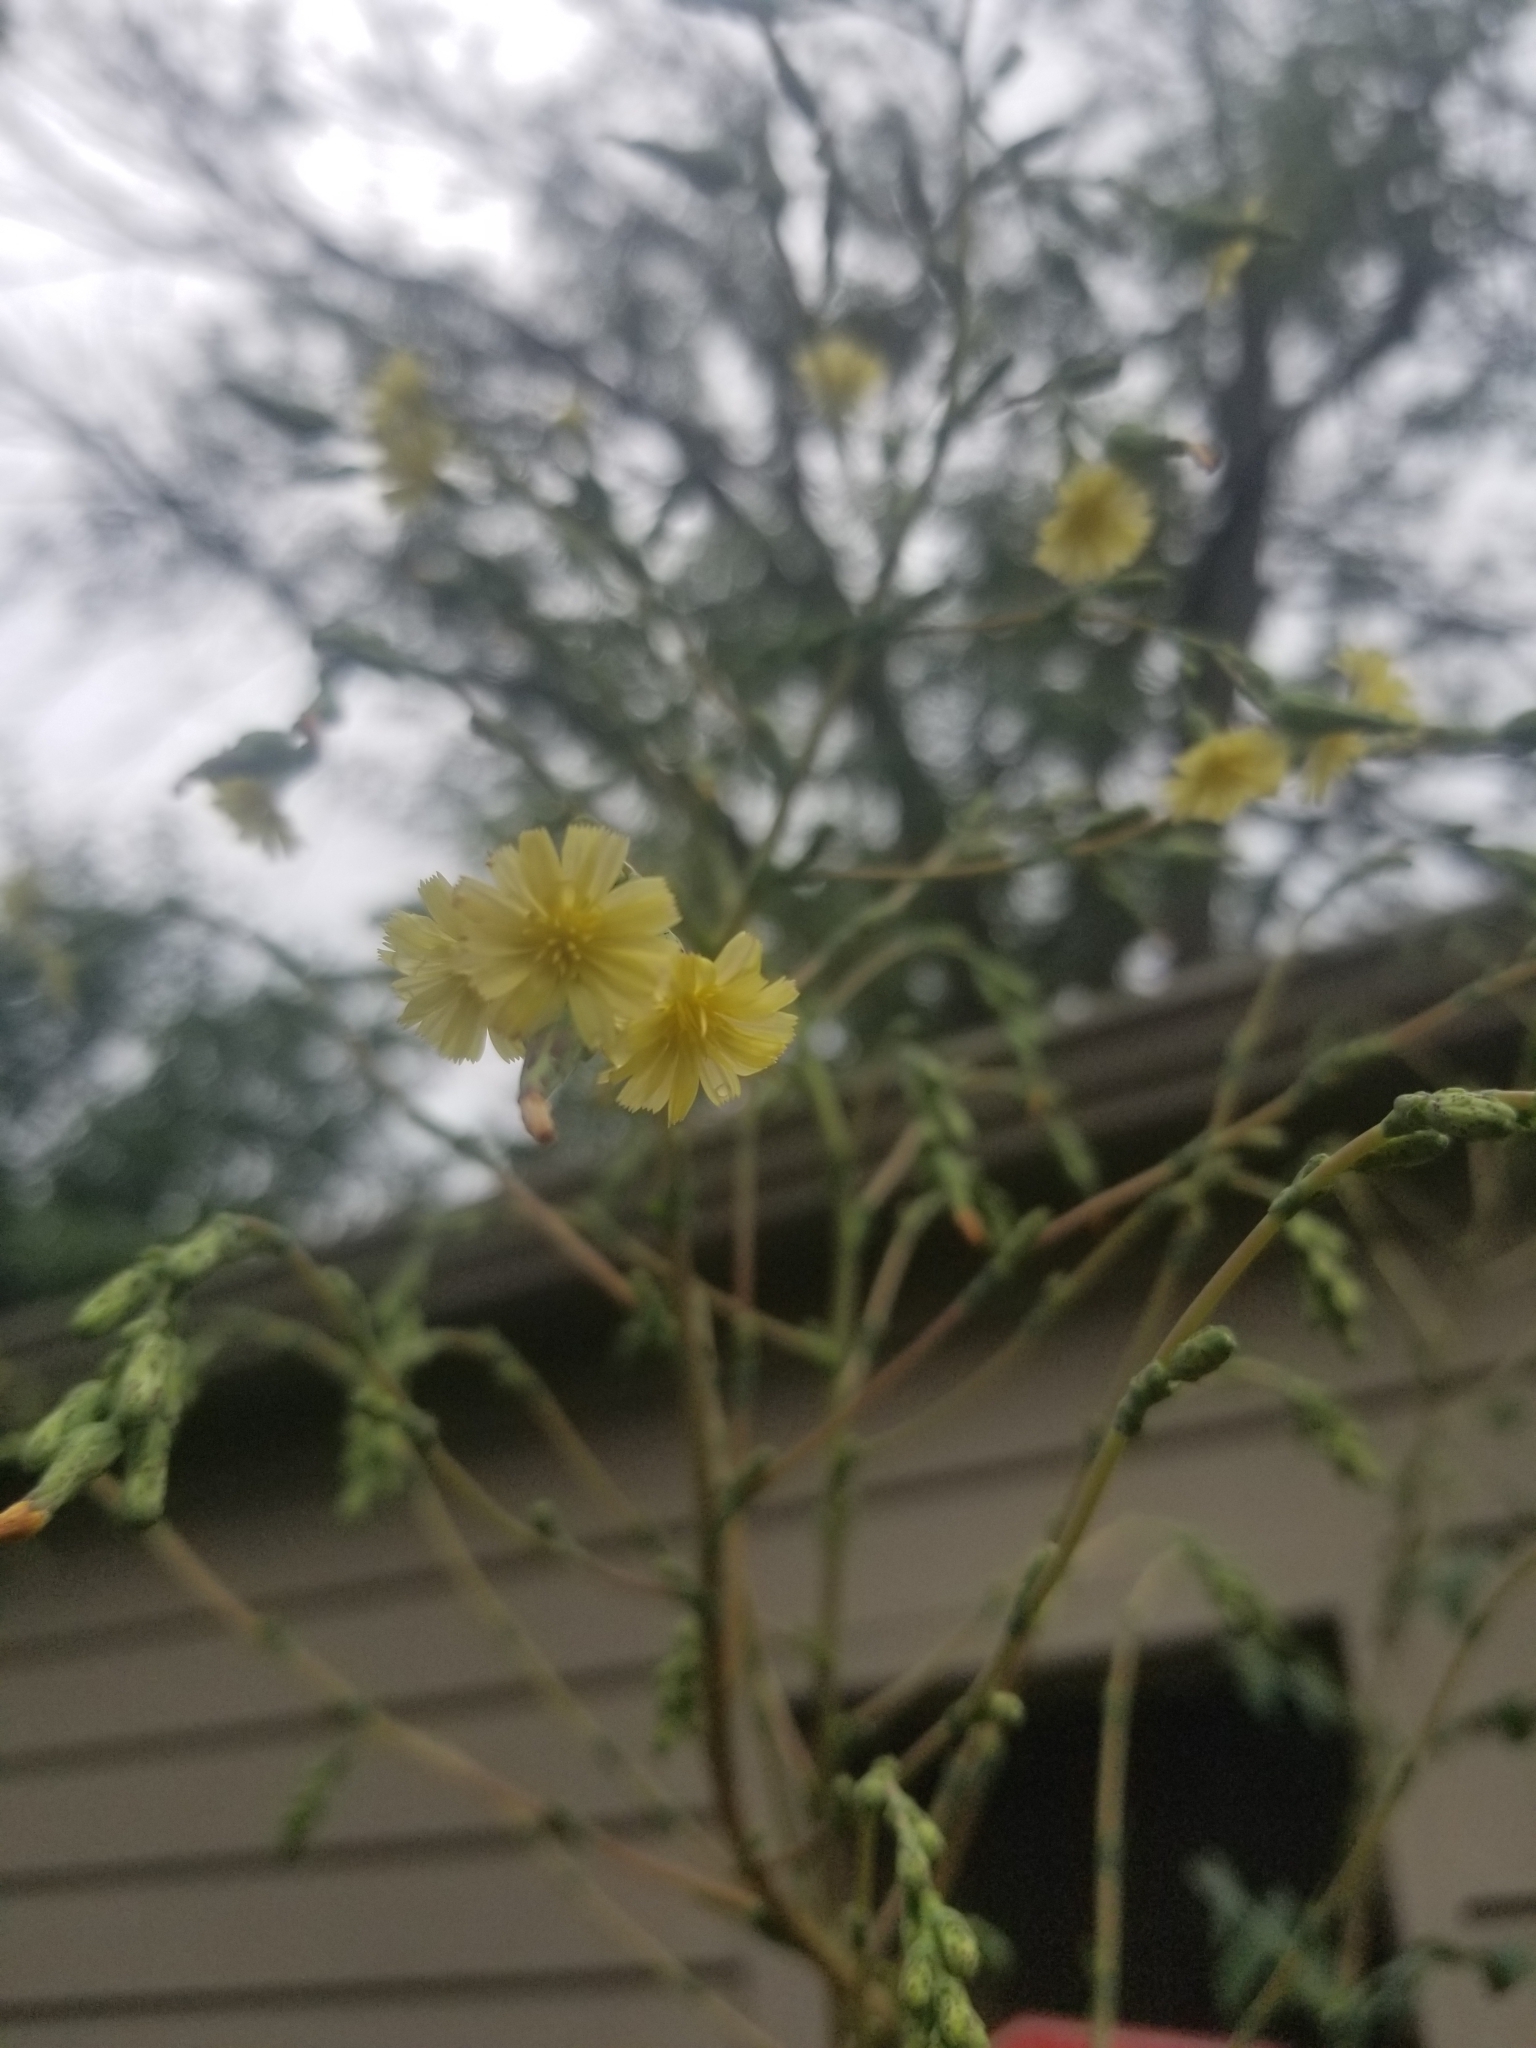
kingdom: Plantae
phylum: Tracheophyta
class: Magnoliopsida
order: Asterales
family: Asteraceae
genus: Lactuca
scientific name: Lactuca serriola
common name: Prickly lettuce
